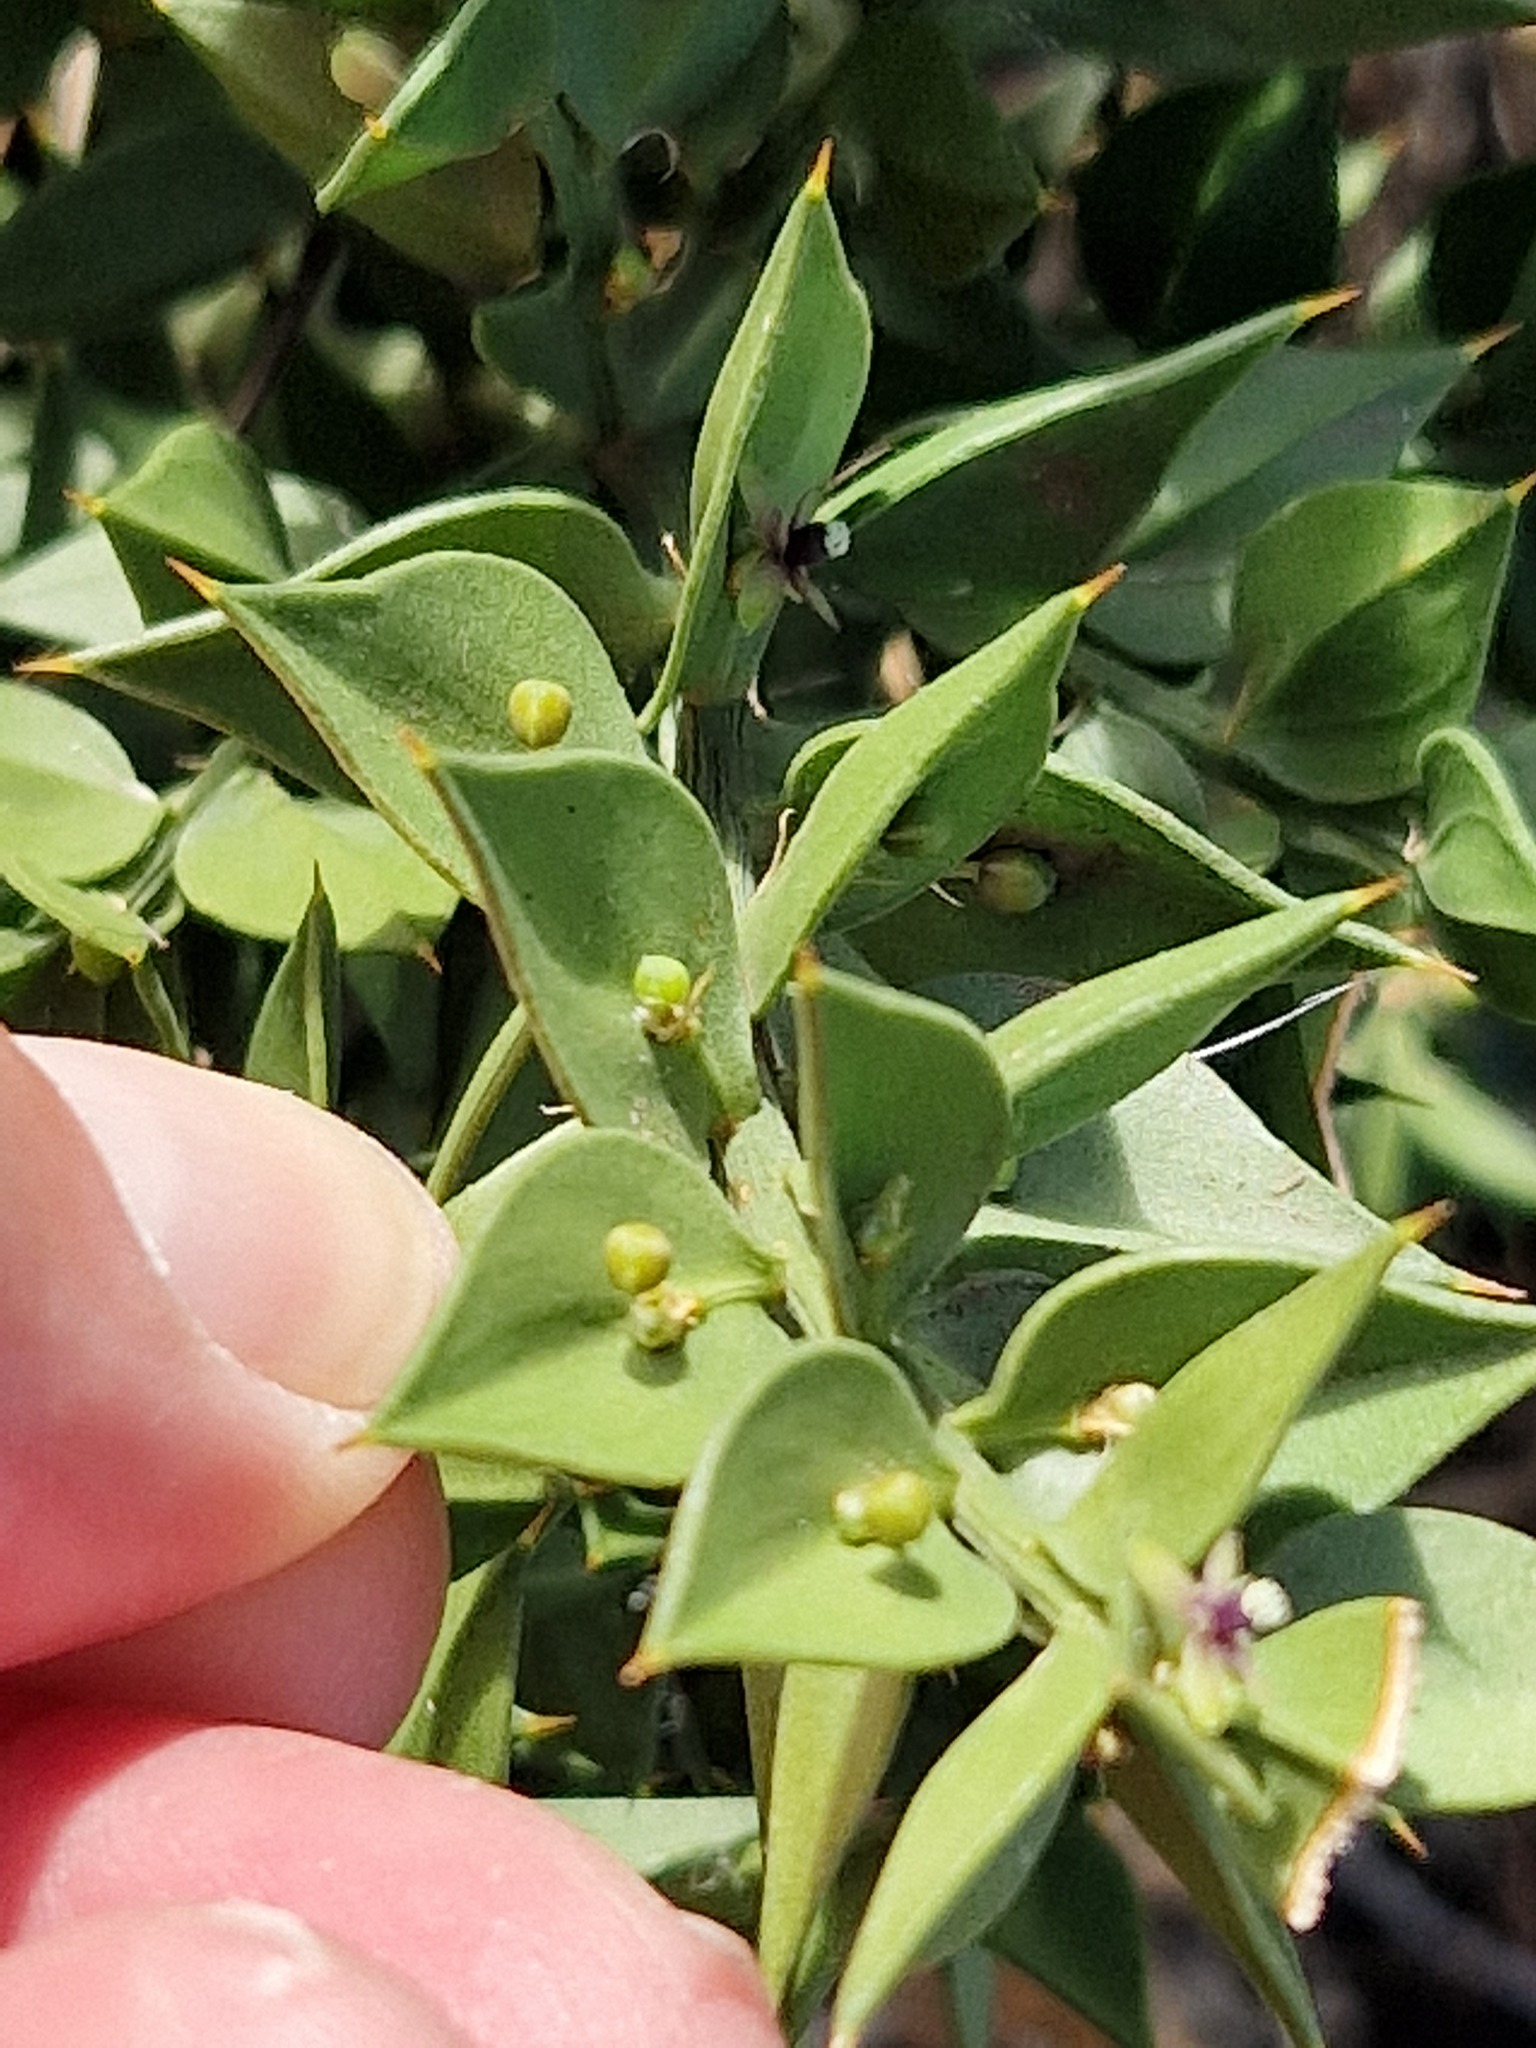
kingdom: Plantae
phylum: Tracheophyta
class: Liliopsida
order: Asparagales
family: Asparagaceae
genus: Ruscus
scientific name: Ruscus aculeatus
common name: Butcher's-broom
